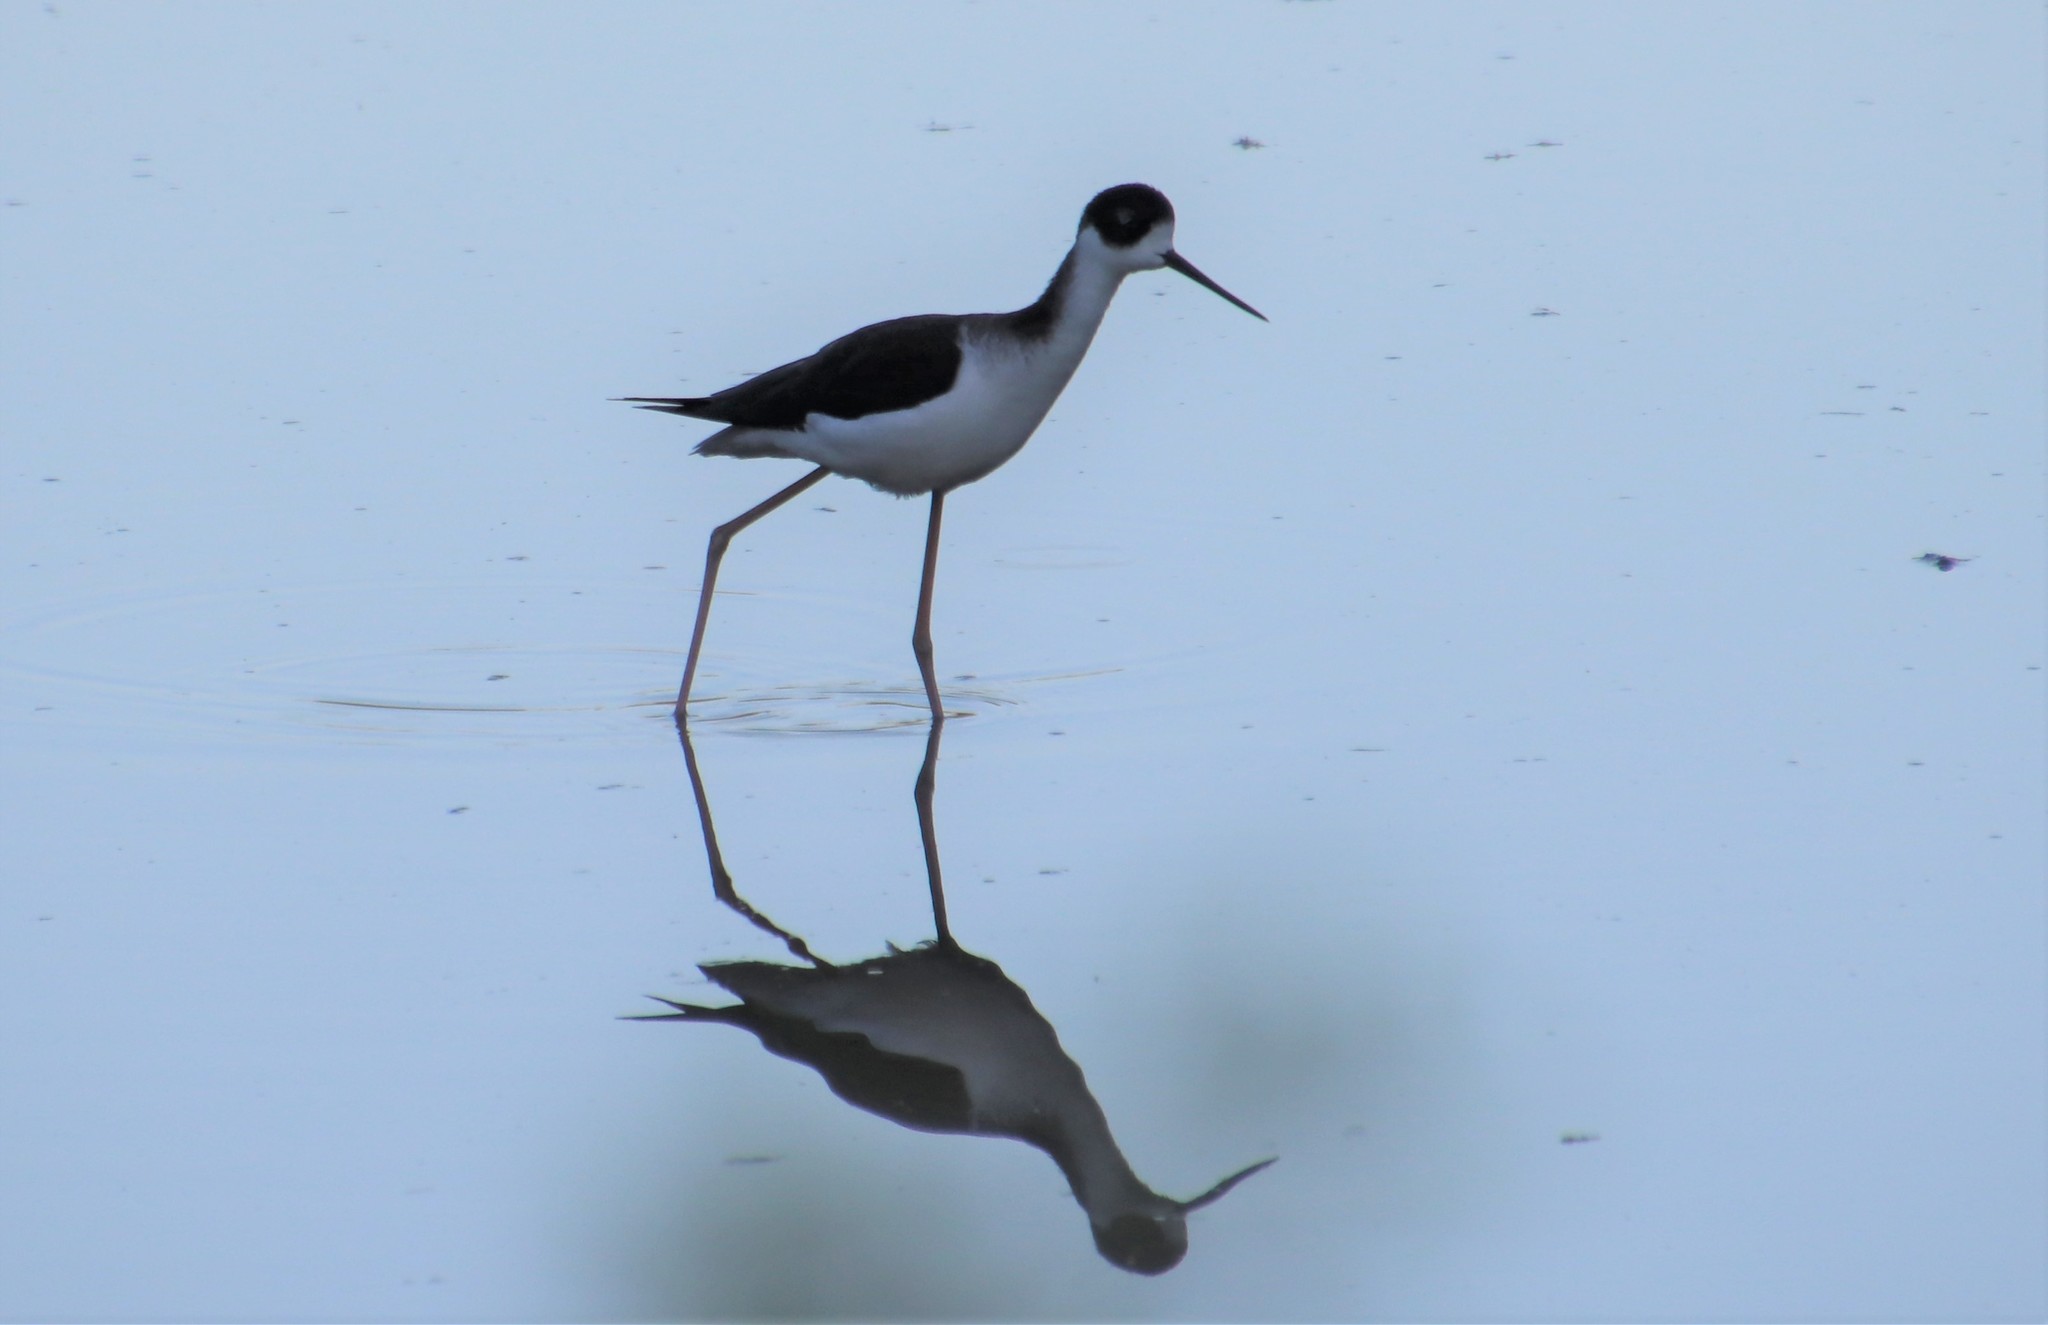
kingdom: Animalia
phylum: Chordata
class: Aves
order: Charadriiformes
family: Recurvirostridae
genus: Himantopus
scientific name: Himantopus mexicanus
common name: Black-necked stilt
